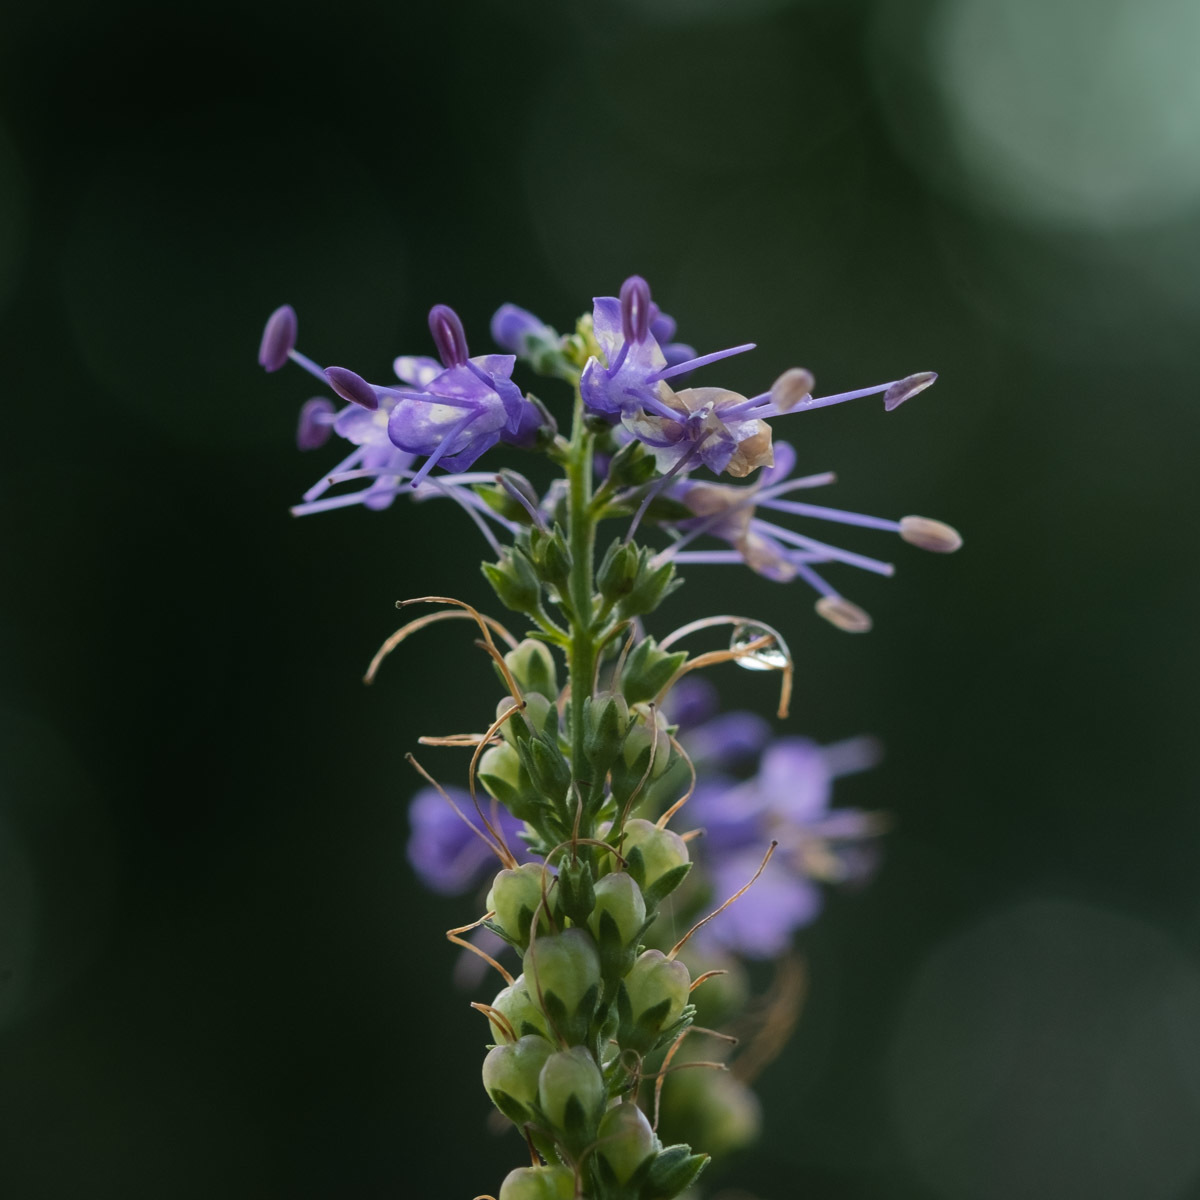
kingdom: Plantae
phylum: Tracheophyta
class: Magnoliopsida
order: Lamiales
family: Plantaginaceae
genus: Veronica
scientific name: Veronica longifolia
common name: Garden speedwell
